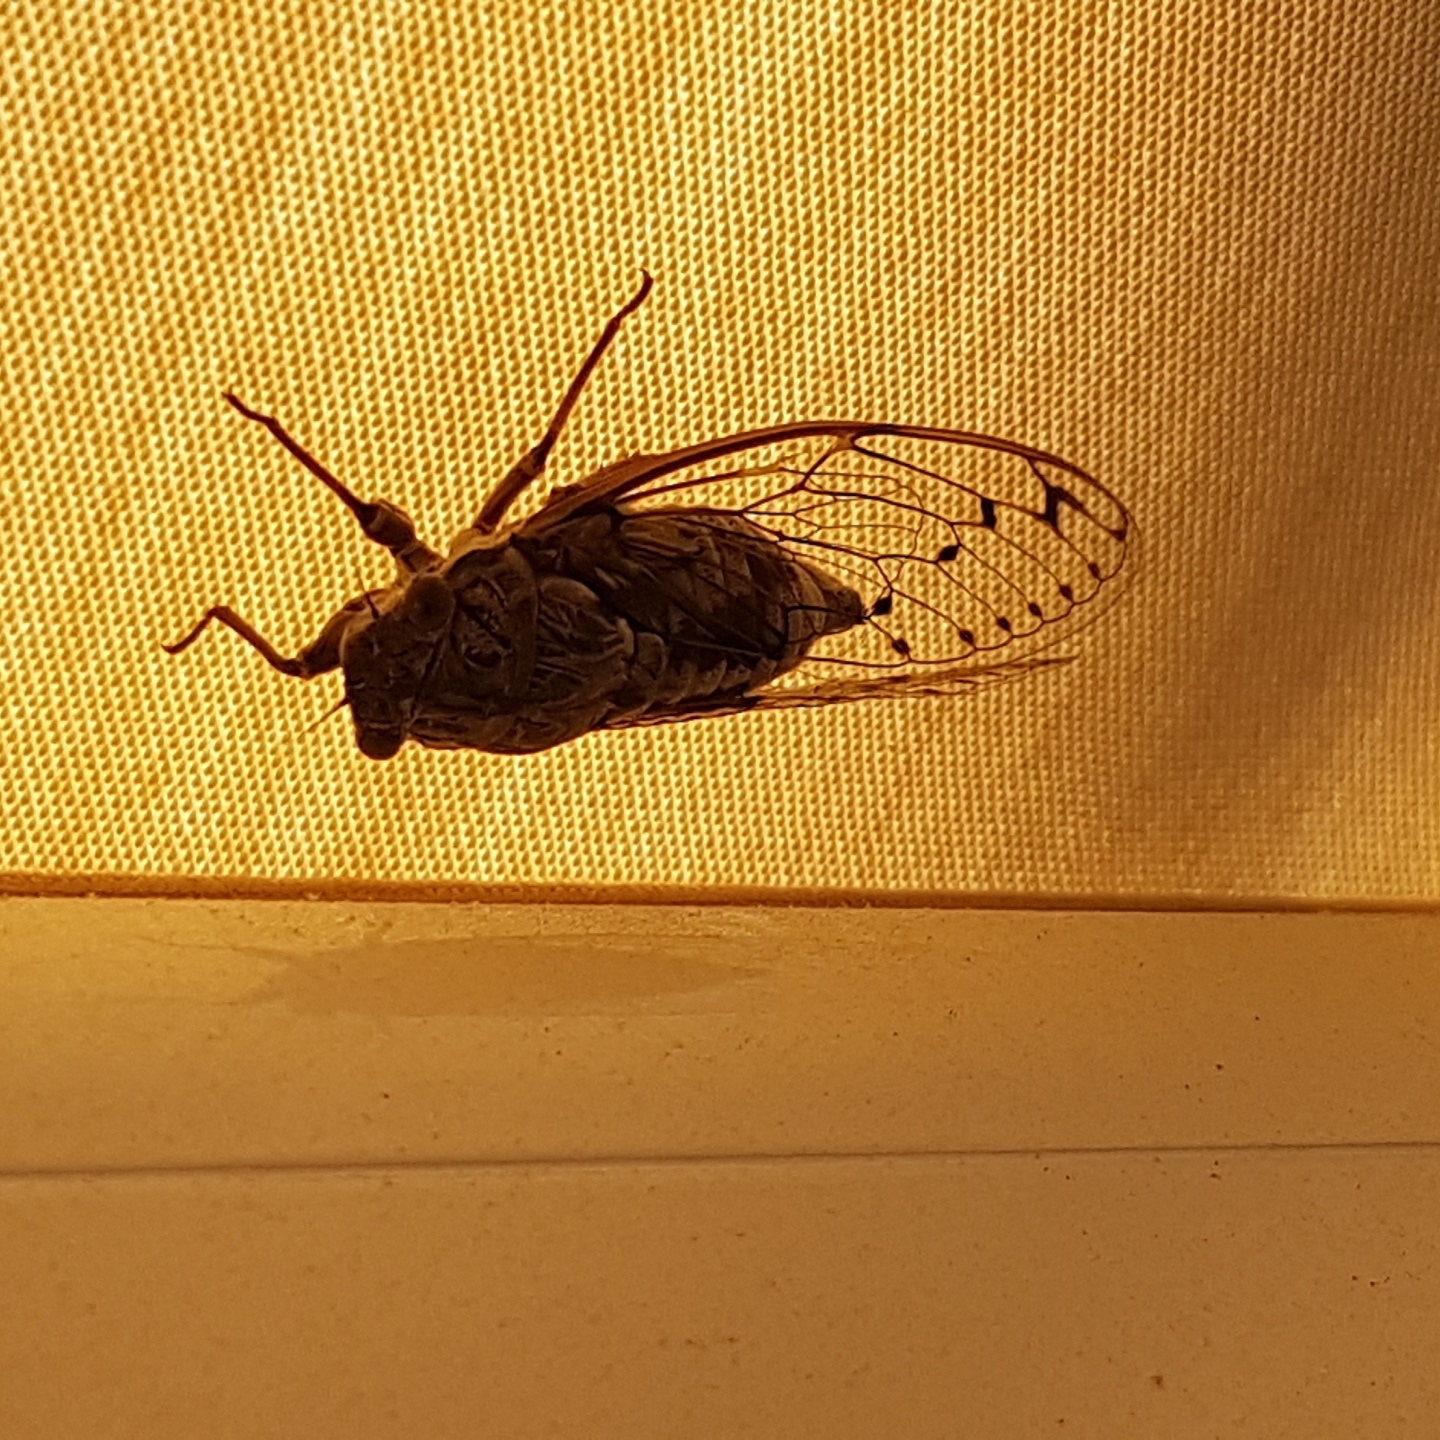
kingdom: Animalia
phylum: Arthropoda
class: Insecta
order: Hemiptera
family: Cicadidae
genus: Cicada
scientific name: Cicada orni
